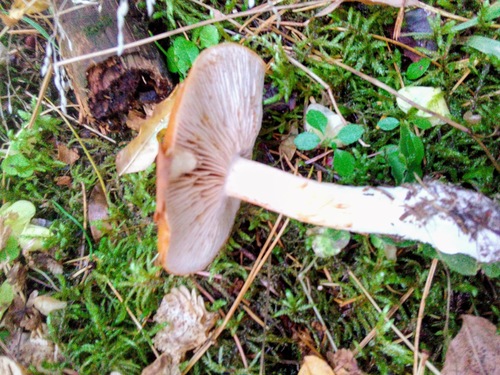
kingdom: Fungi
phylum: Basidiomycota
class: Agaricomycetes
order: Agaricales
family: Cortinariaceae
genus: Cortinarius
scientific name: Cortinarius
